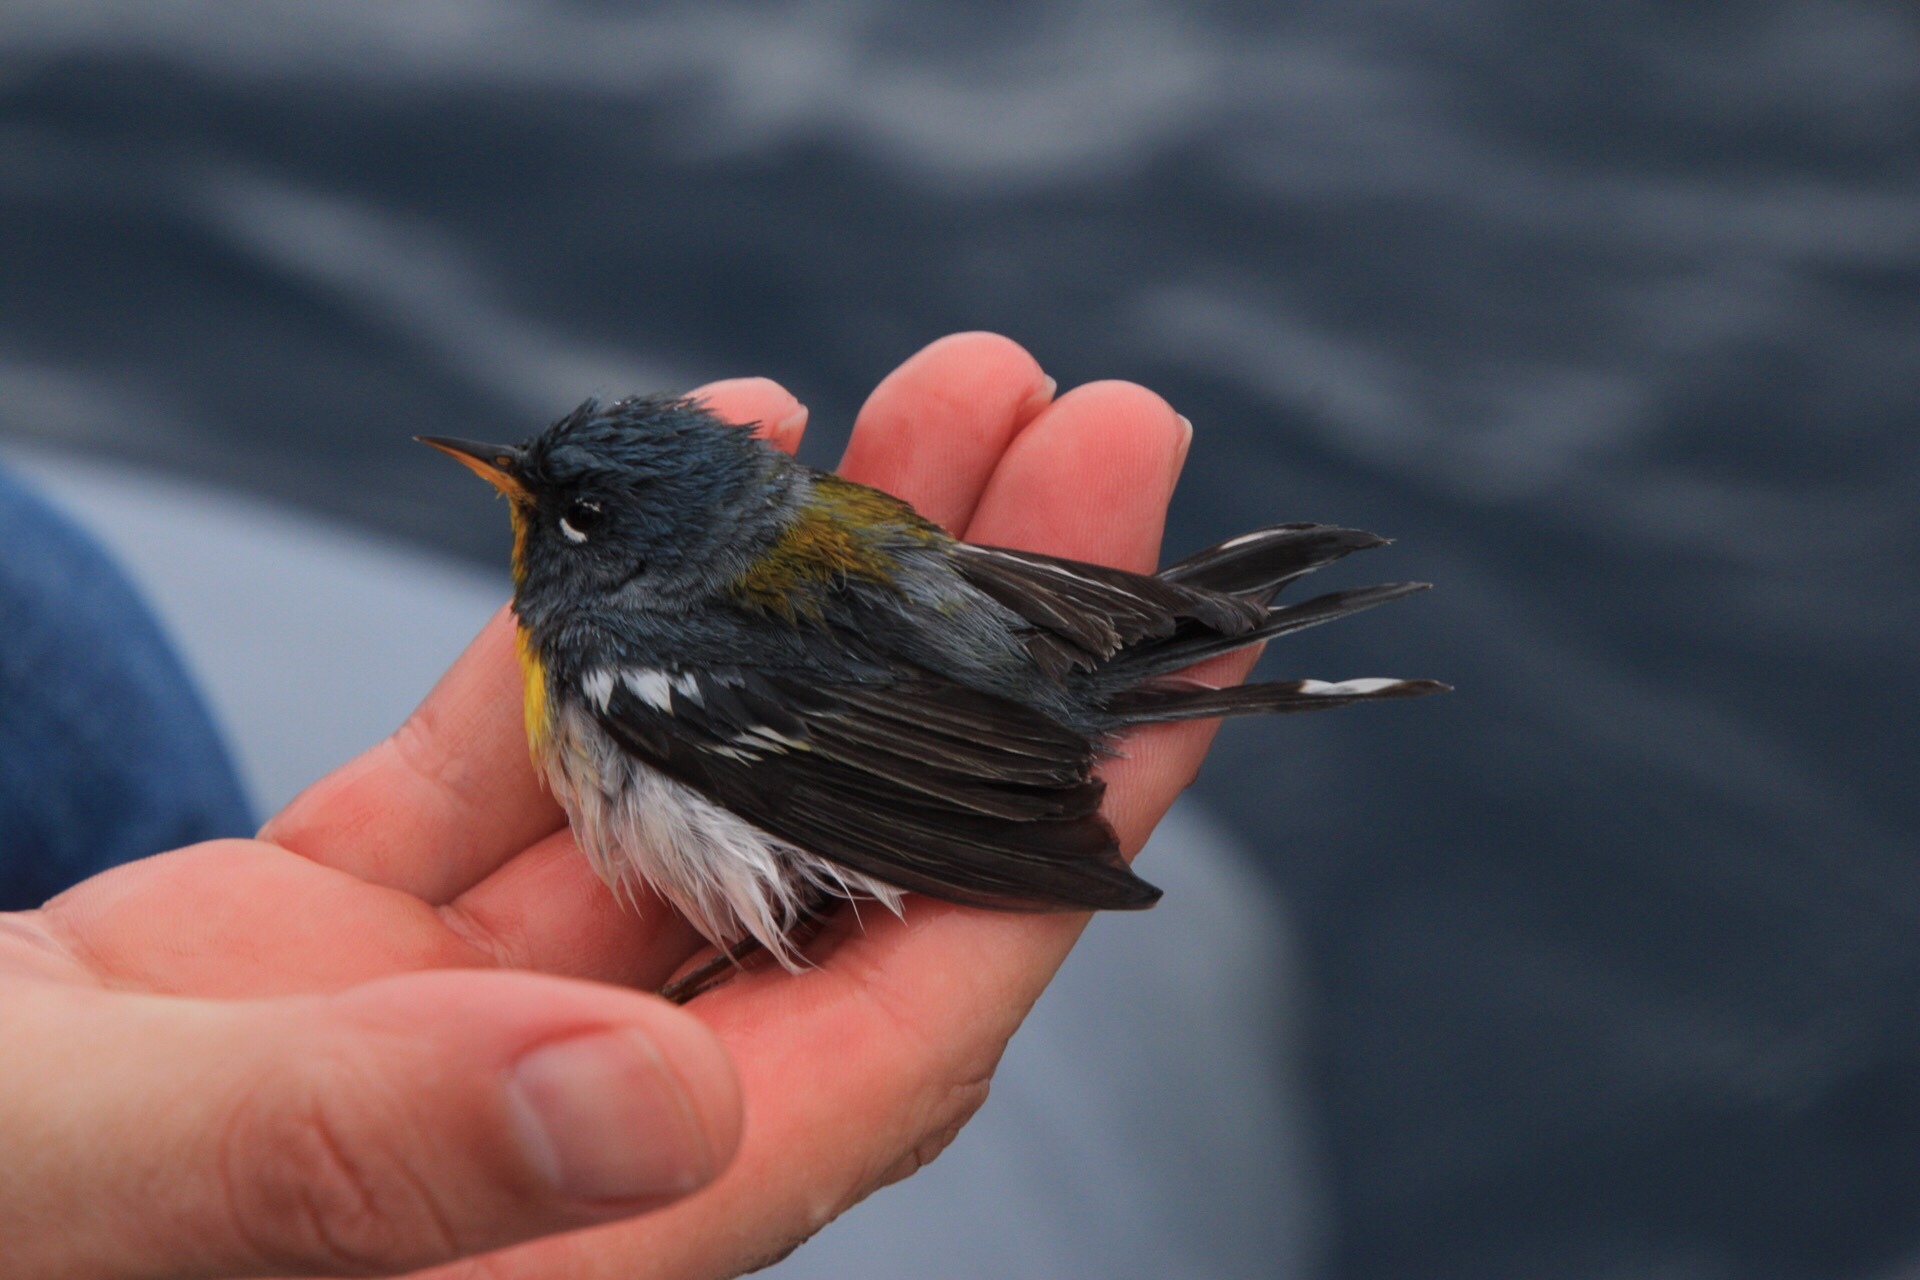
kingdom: Animalia
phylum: Chordata
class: Aves
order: Passeriformes
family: Parulidae
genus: Setophaga
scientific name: Setophaga americana
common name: Northern parula
